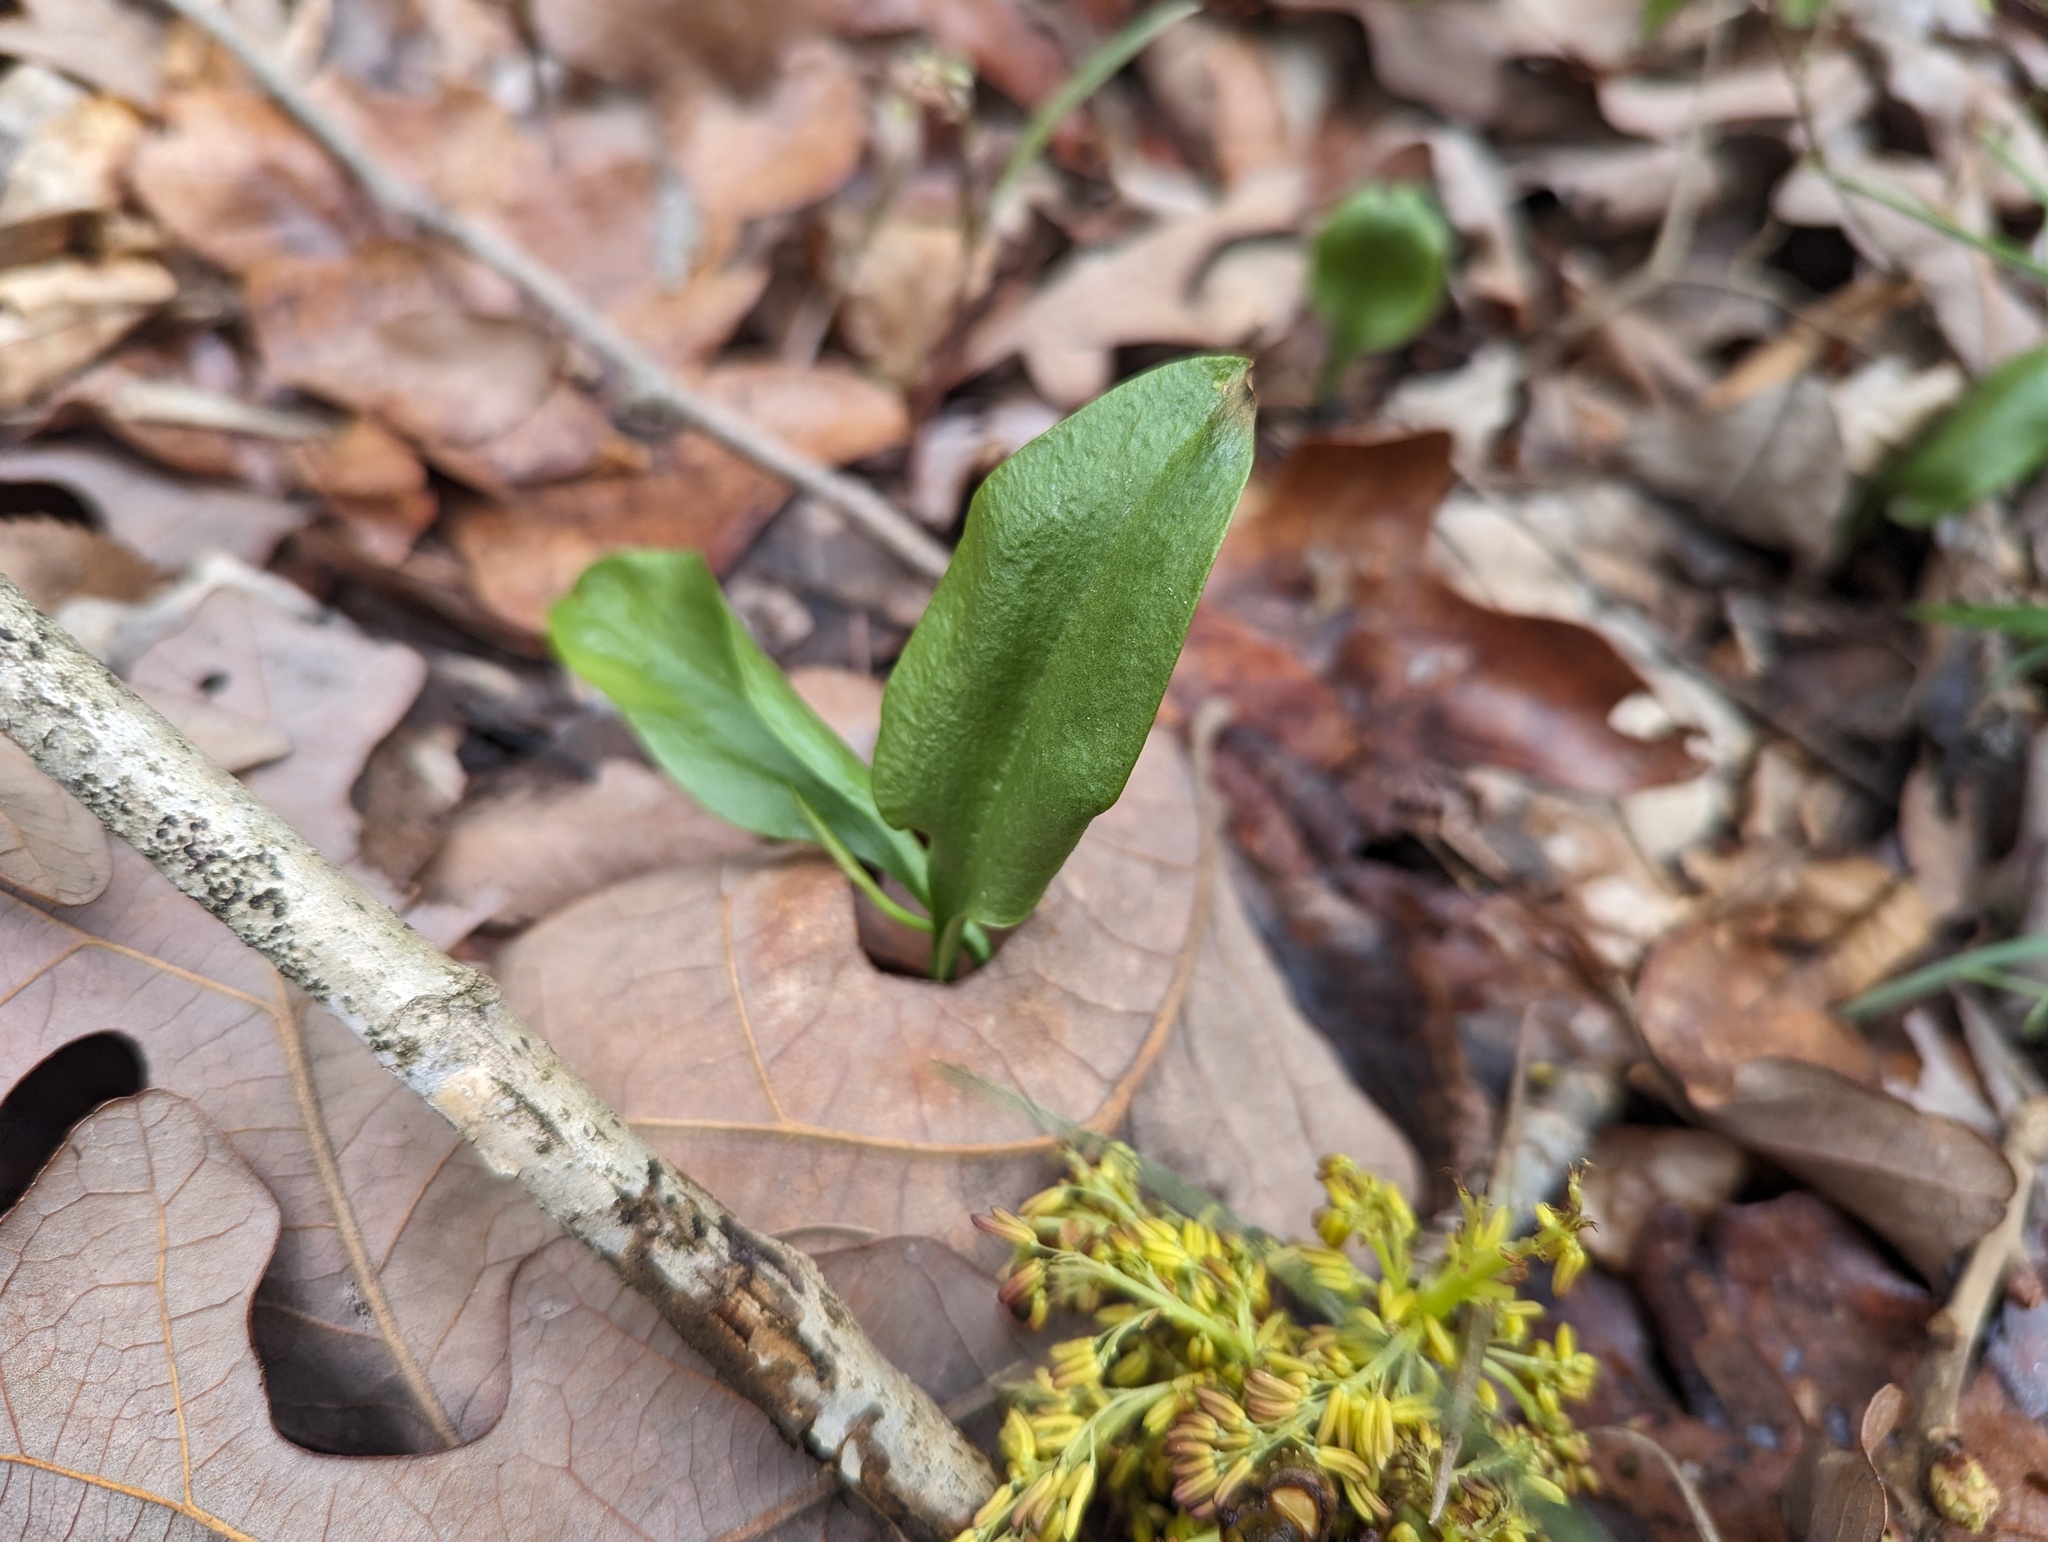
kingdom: Plantae
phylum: Tracheophyta
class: Polypodiopsida
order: Ophioglossales
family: Ophioglossaceae
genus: Ophioglossum
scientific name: Ophioglossum vulgatum
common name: Adder's-tongue
